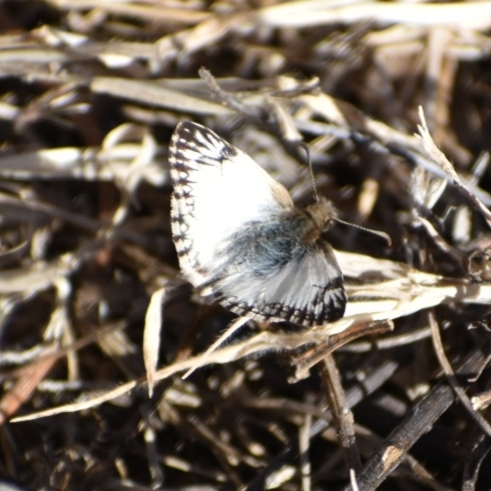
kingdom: Animalia
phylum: Arthropoda
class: Insecta
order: Lepidoptera
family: Hesperiidae
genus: Heliopetes
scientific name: Heliopetes omrina
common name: Stained white-skipper
